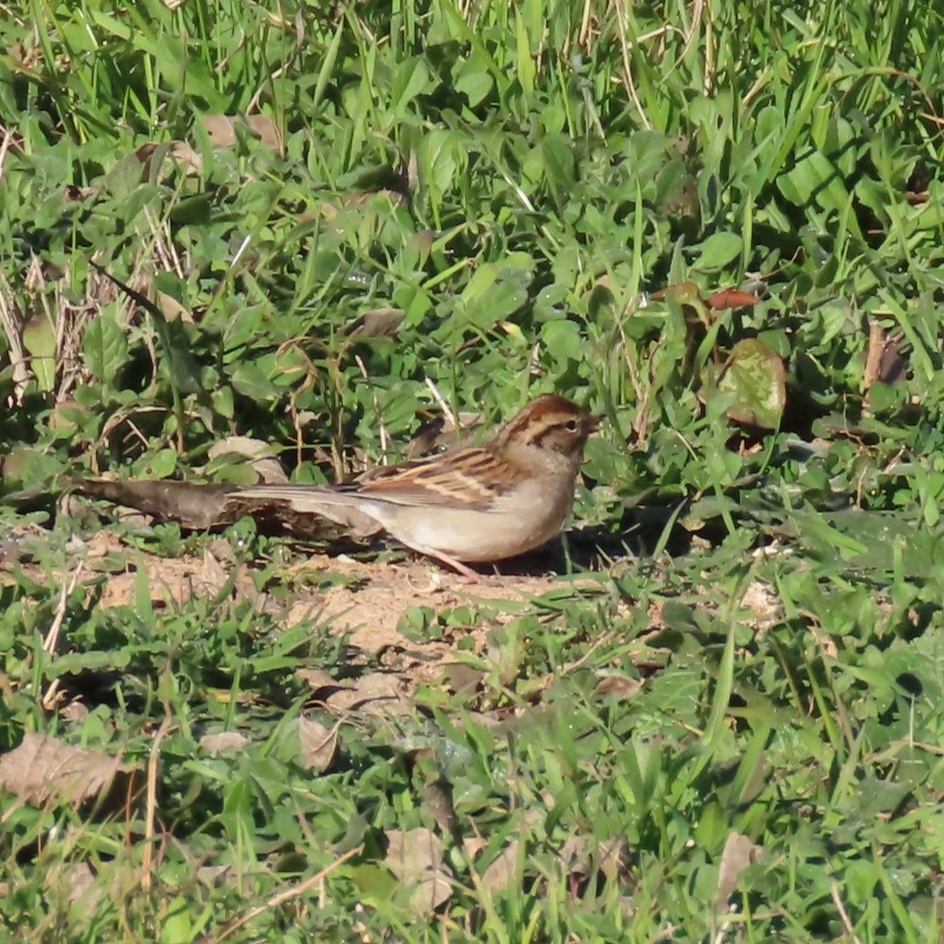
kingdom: Animalia
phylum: Chordata
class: Aves
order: Passeriformes
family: Passerellidae
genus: Spizella
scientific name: Spizella passerina
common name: Chipping sparrow
